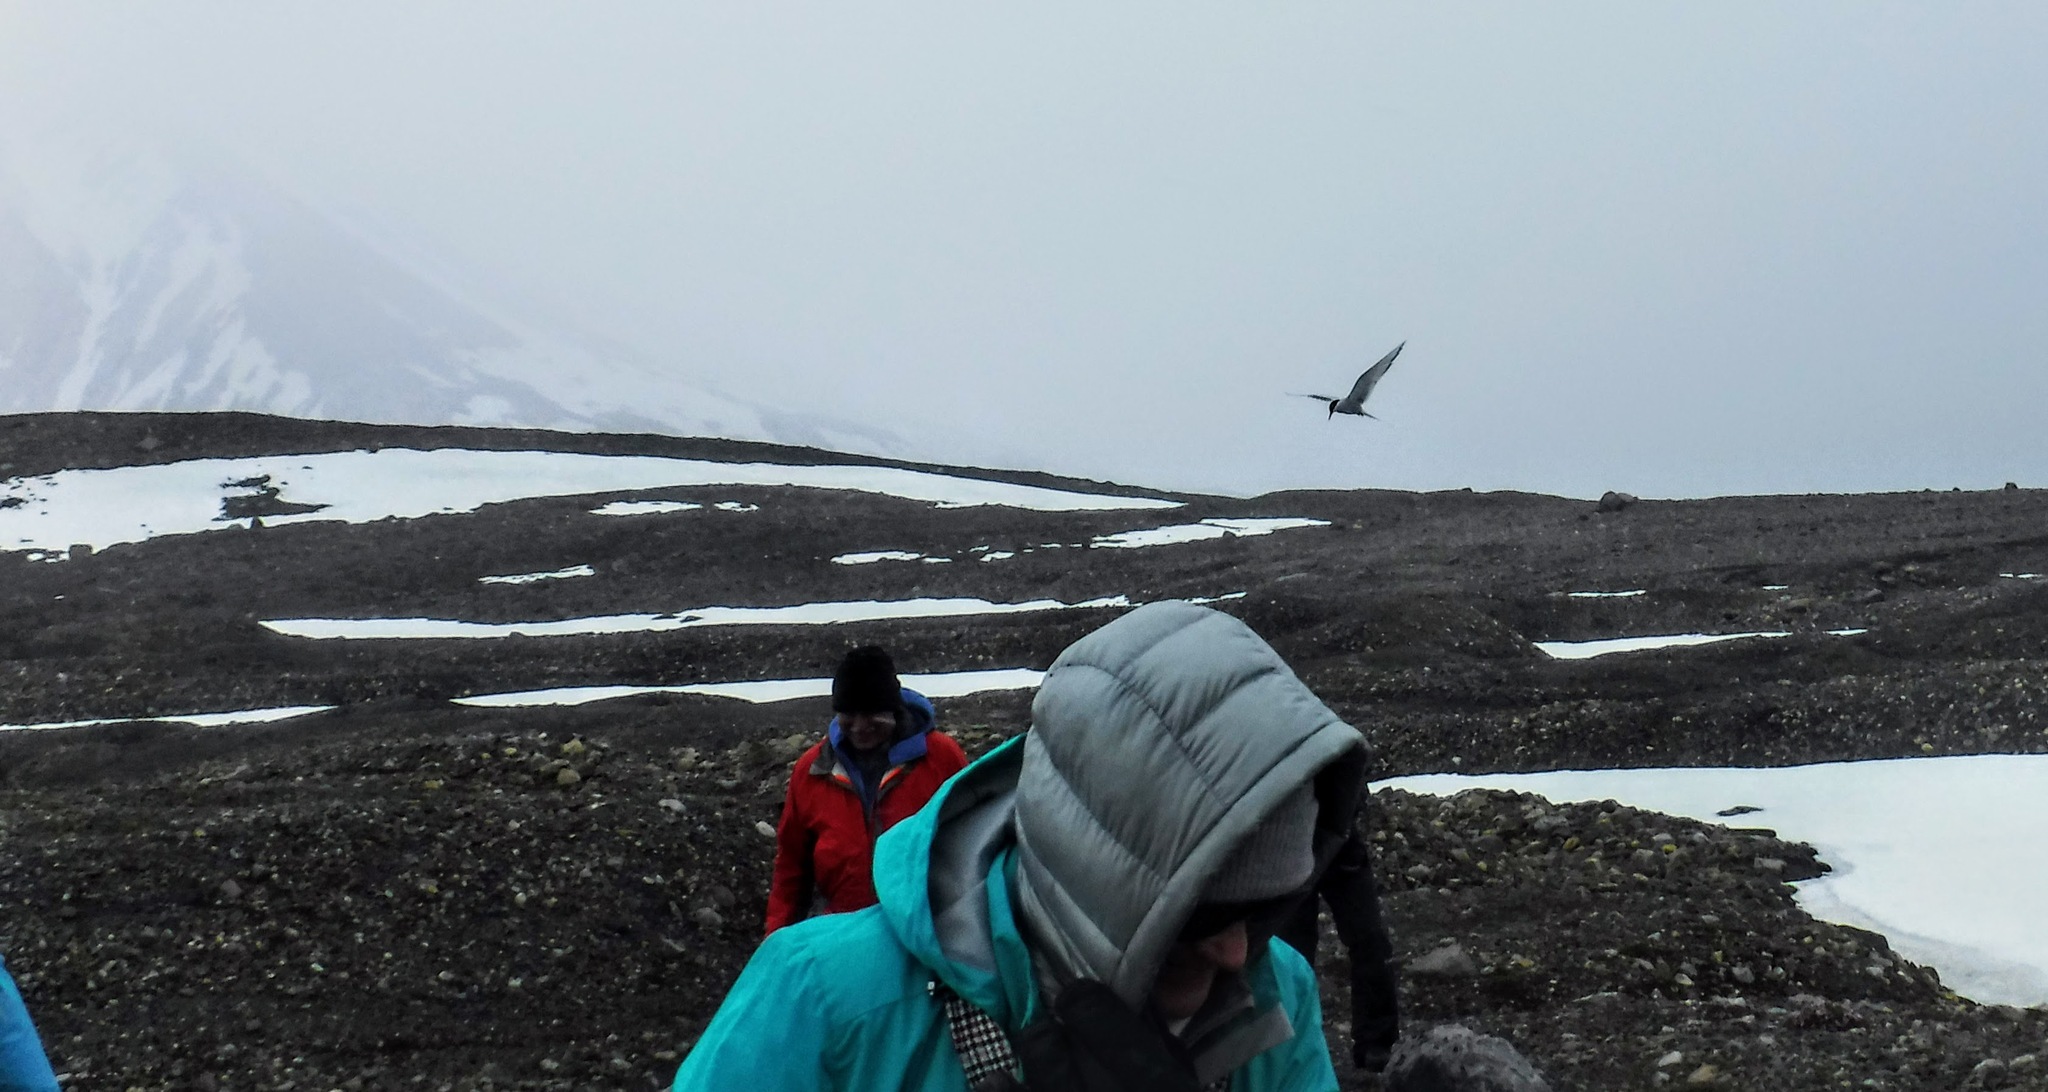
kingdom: Animalia
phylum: Chordata
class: Aves
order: Charadriiformes
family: Laridae
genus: Sterna
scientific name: Sterna paradisaea
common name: Arctic tern
